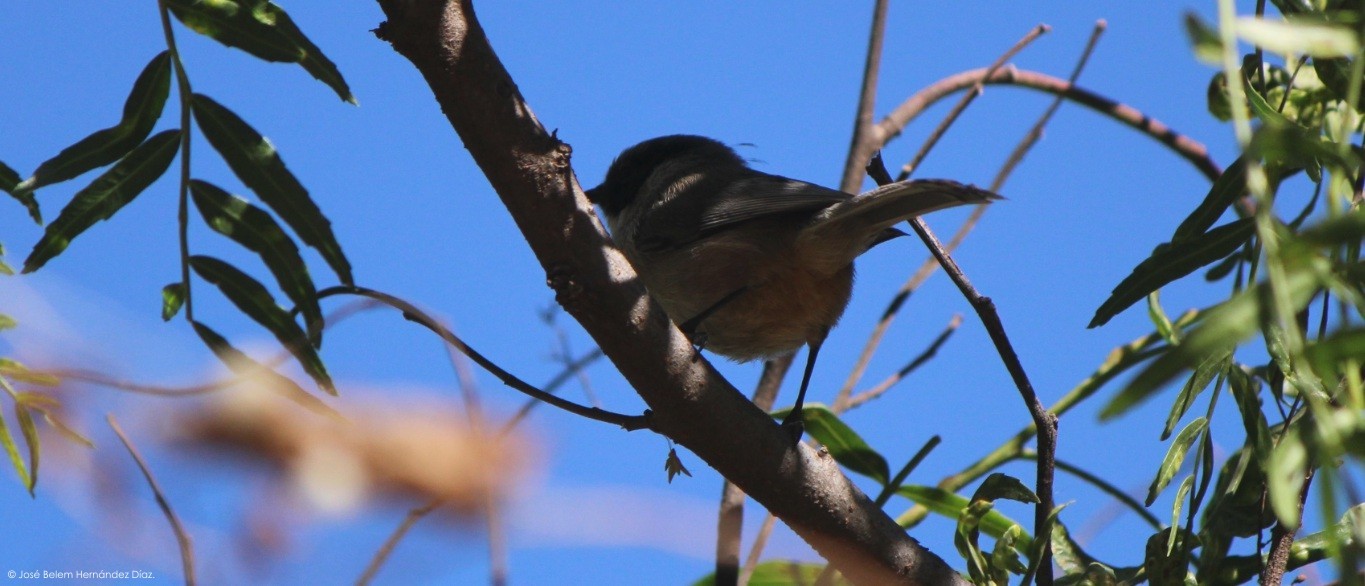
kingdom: Animalia
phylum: Chordata
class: Aves
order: Passeriformes
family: Aegithalidae
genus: Psaltriparus
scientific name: Psaltriparus minimus
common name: American bushtit
